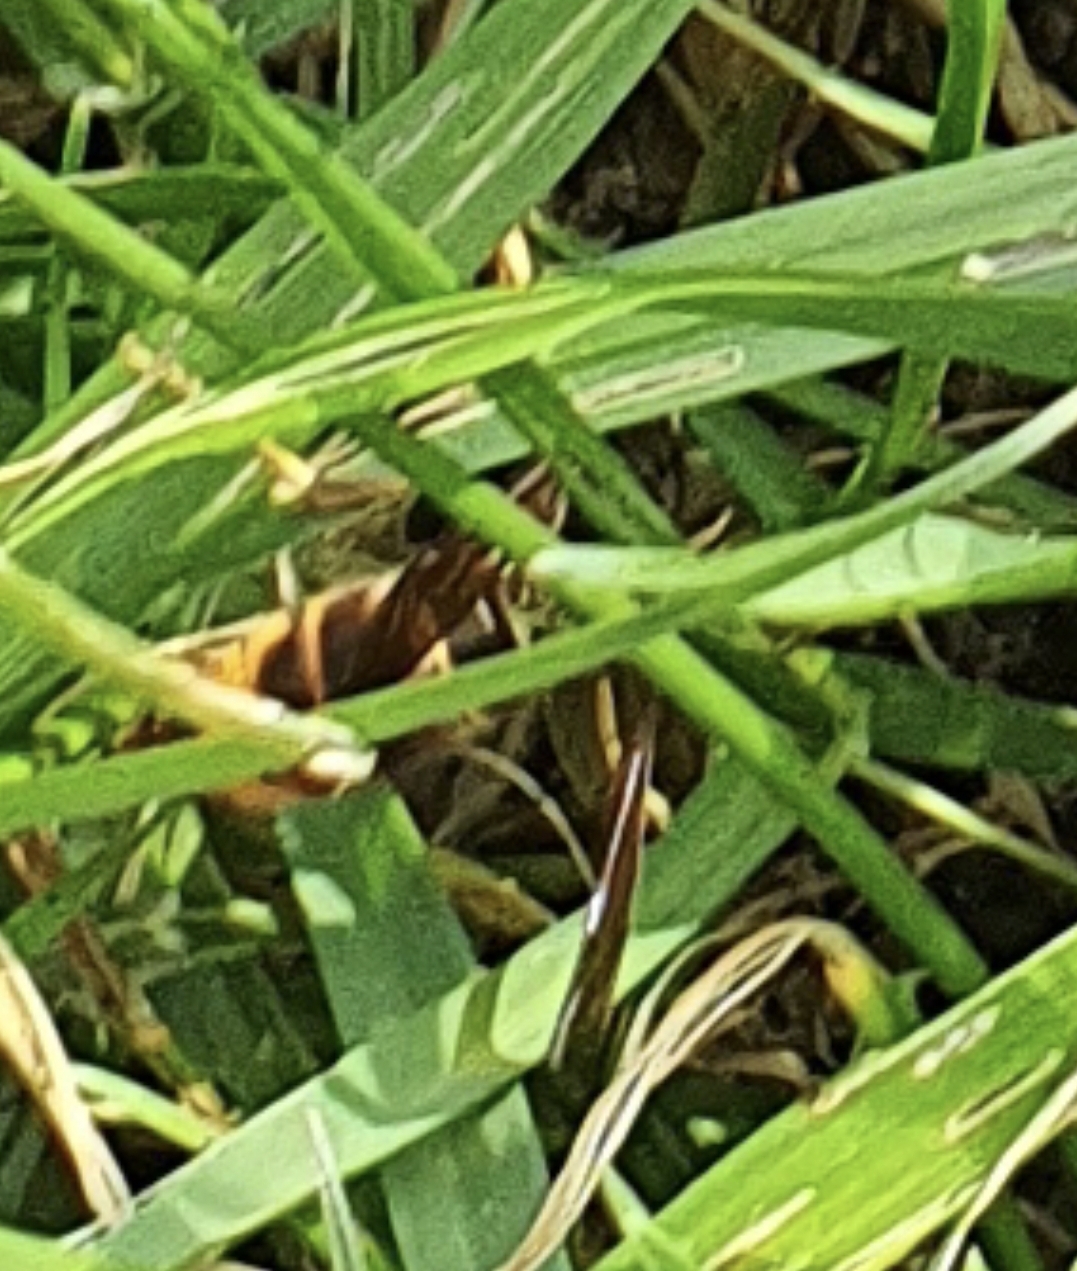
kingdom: Animalia
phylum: Arthropoda
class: Insecta
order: Hymenoptera
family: Vespidae
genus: Vespa
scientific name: Vespa velutina
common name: Asian hornet
